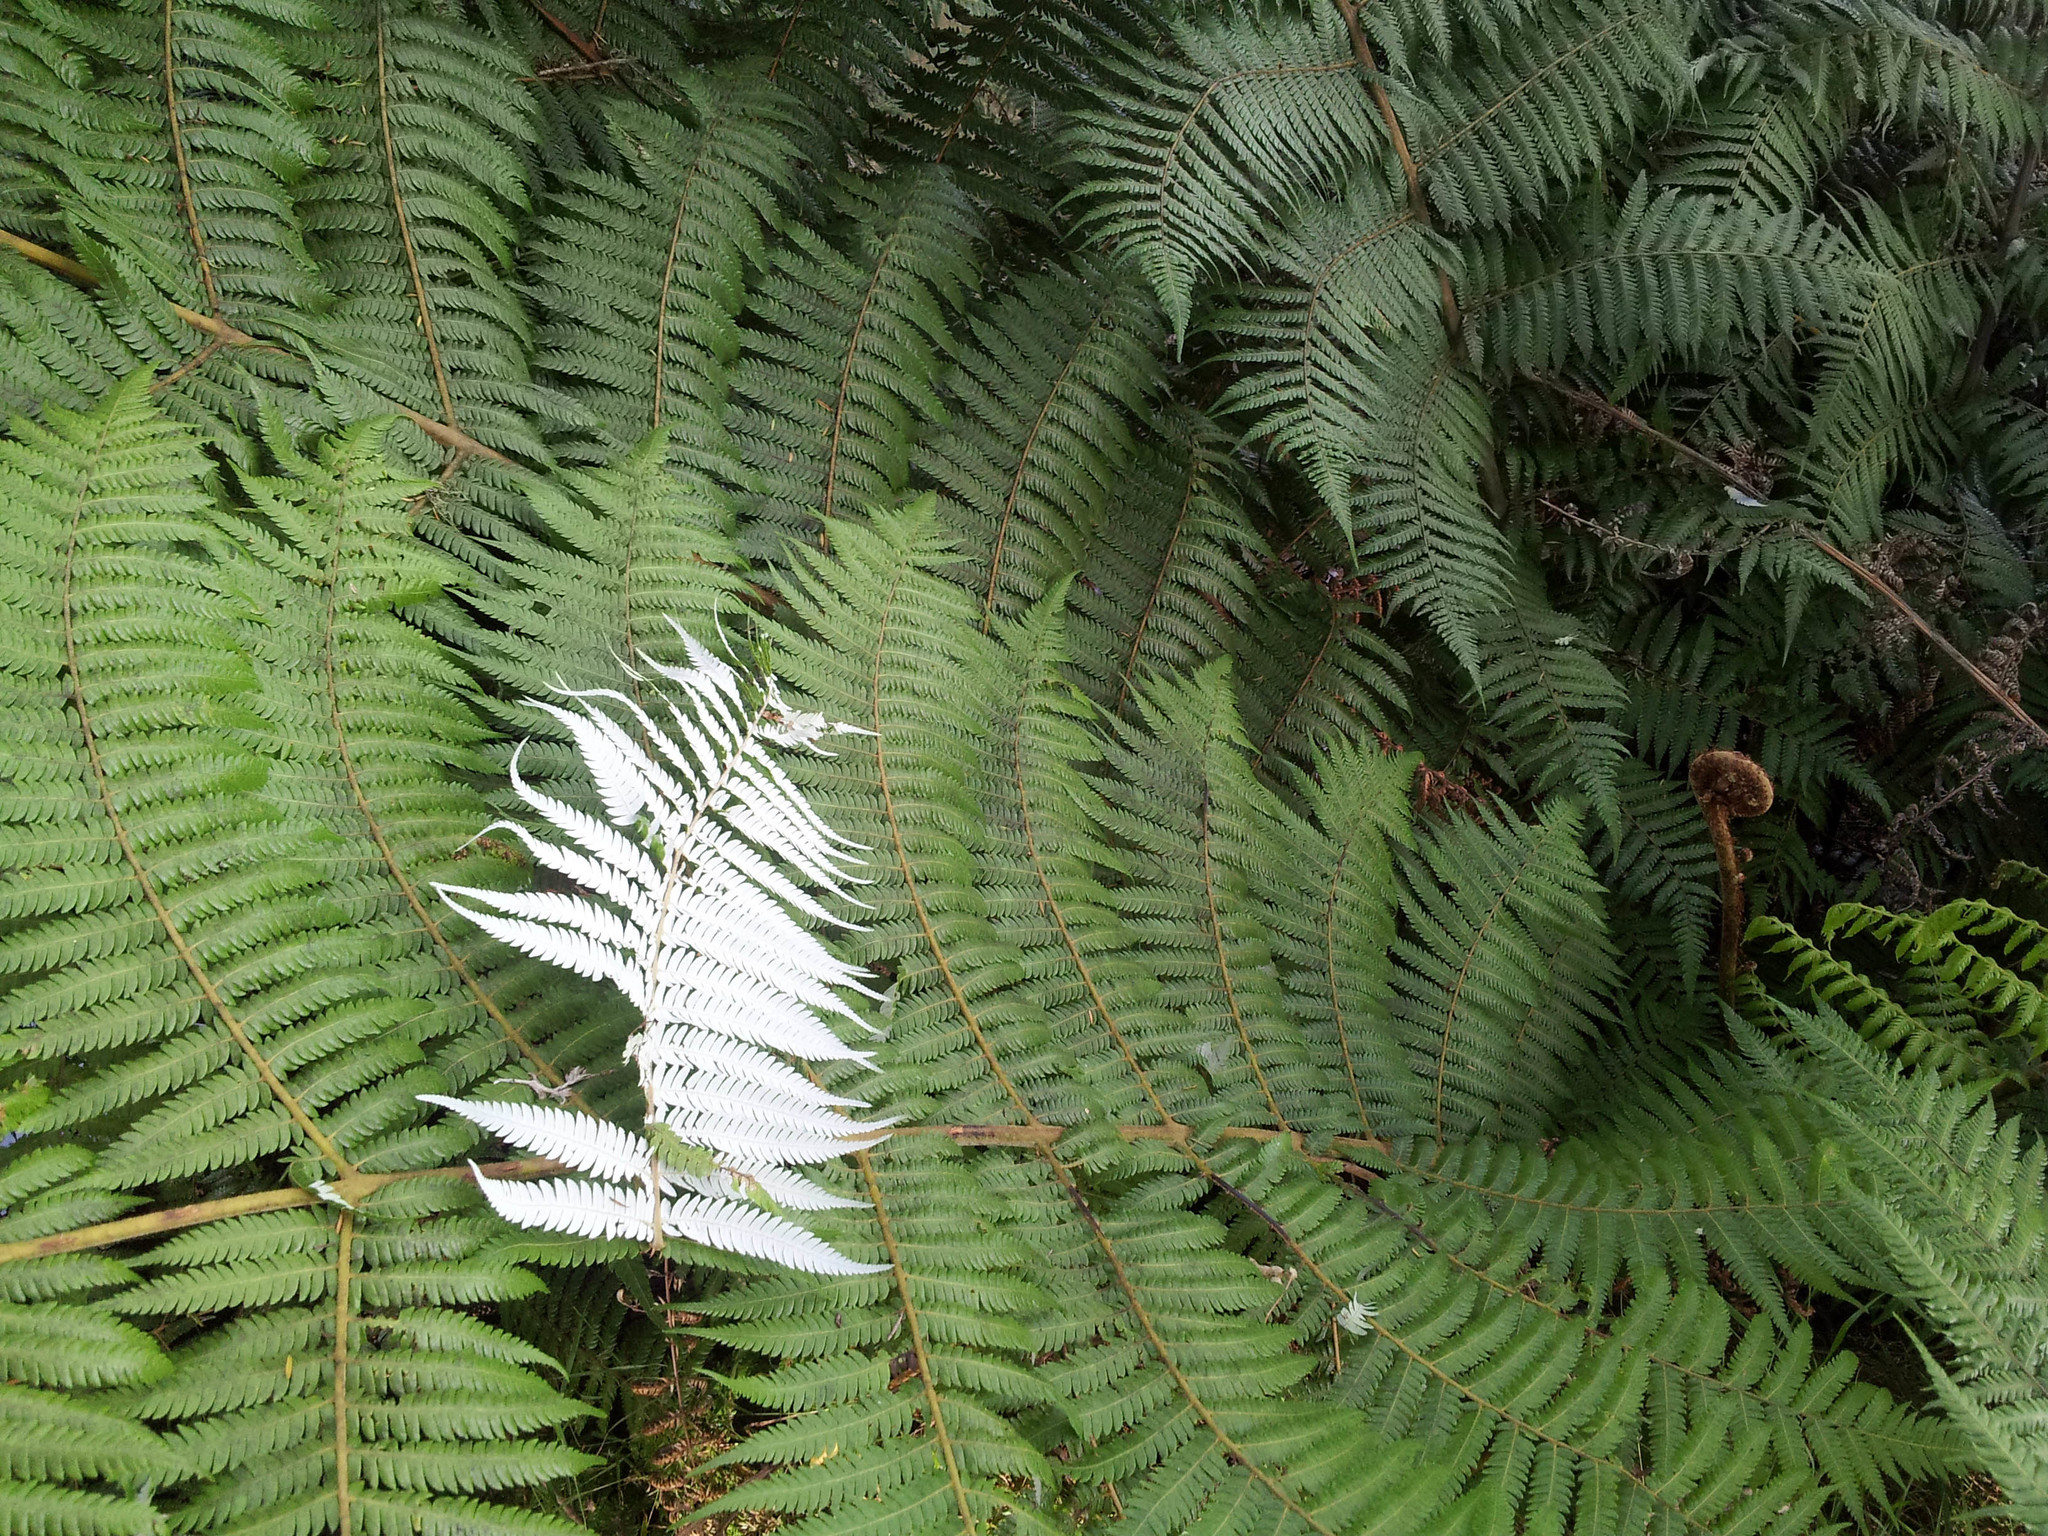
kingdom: Plantae
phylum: Tracheophyta
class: Polypodiopsida
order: Cyatheales
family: Cyatheaceae
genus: Alsophila
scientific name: Alsophila dealbata
